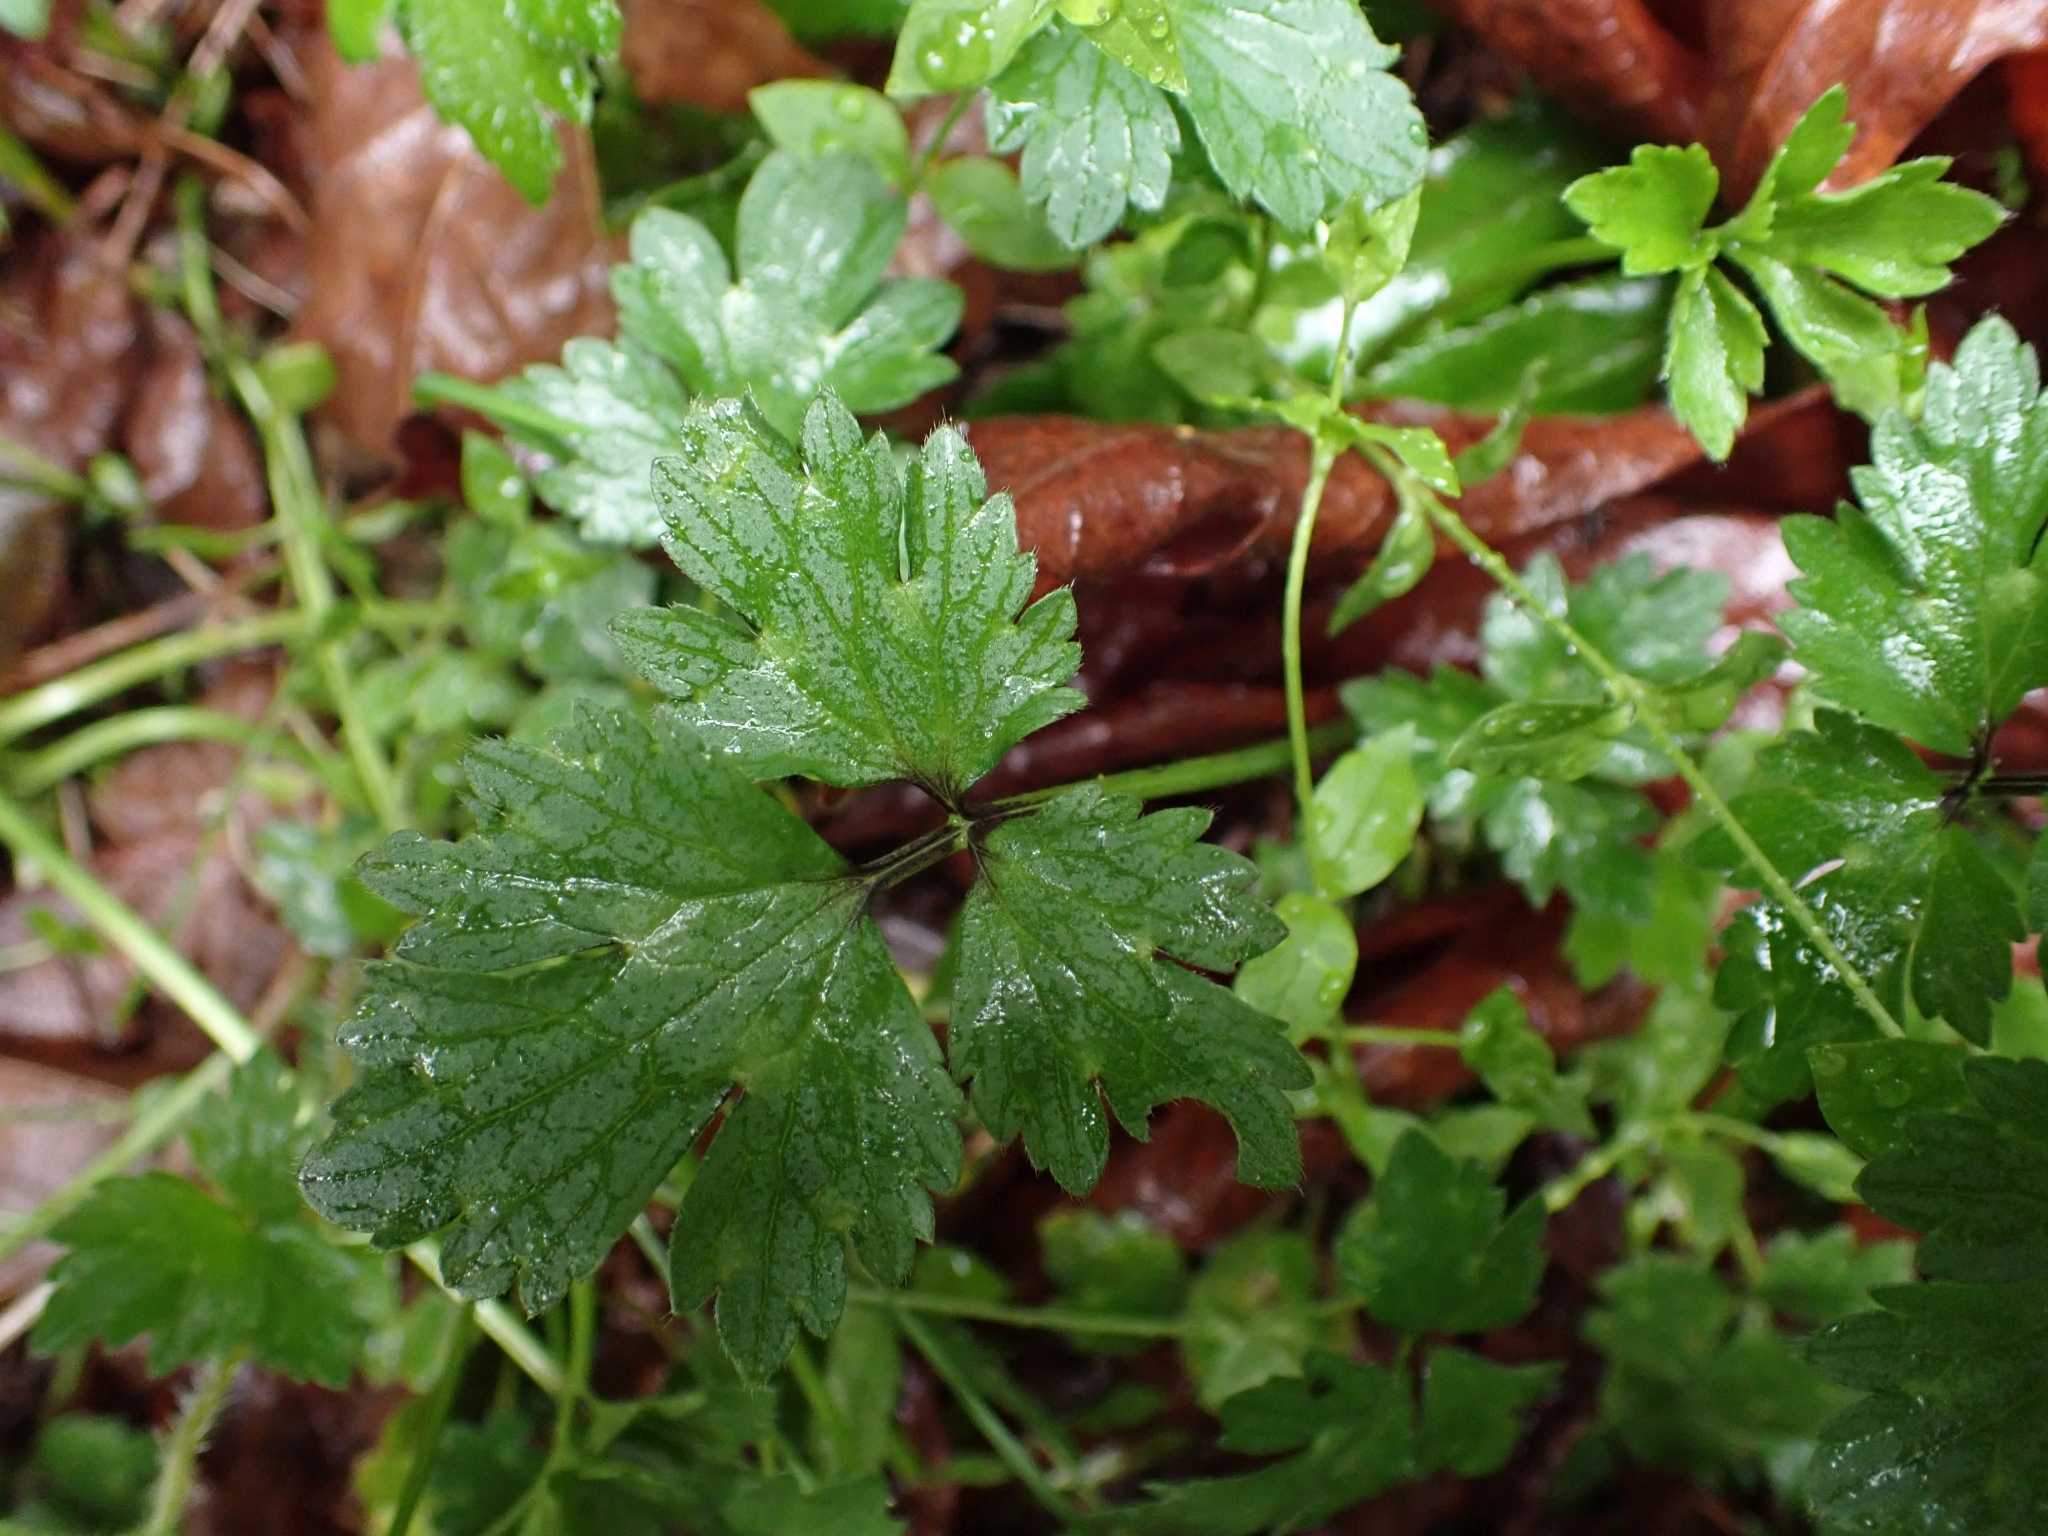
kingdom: Plantae
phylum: Tracheophyta
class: Magnoliopsida
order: Ranunculales
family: Ranunculaceae
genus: Ranunculus
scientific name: Ranunculus repens
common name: Creeping buttercup
